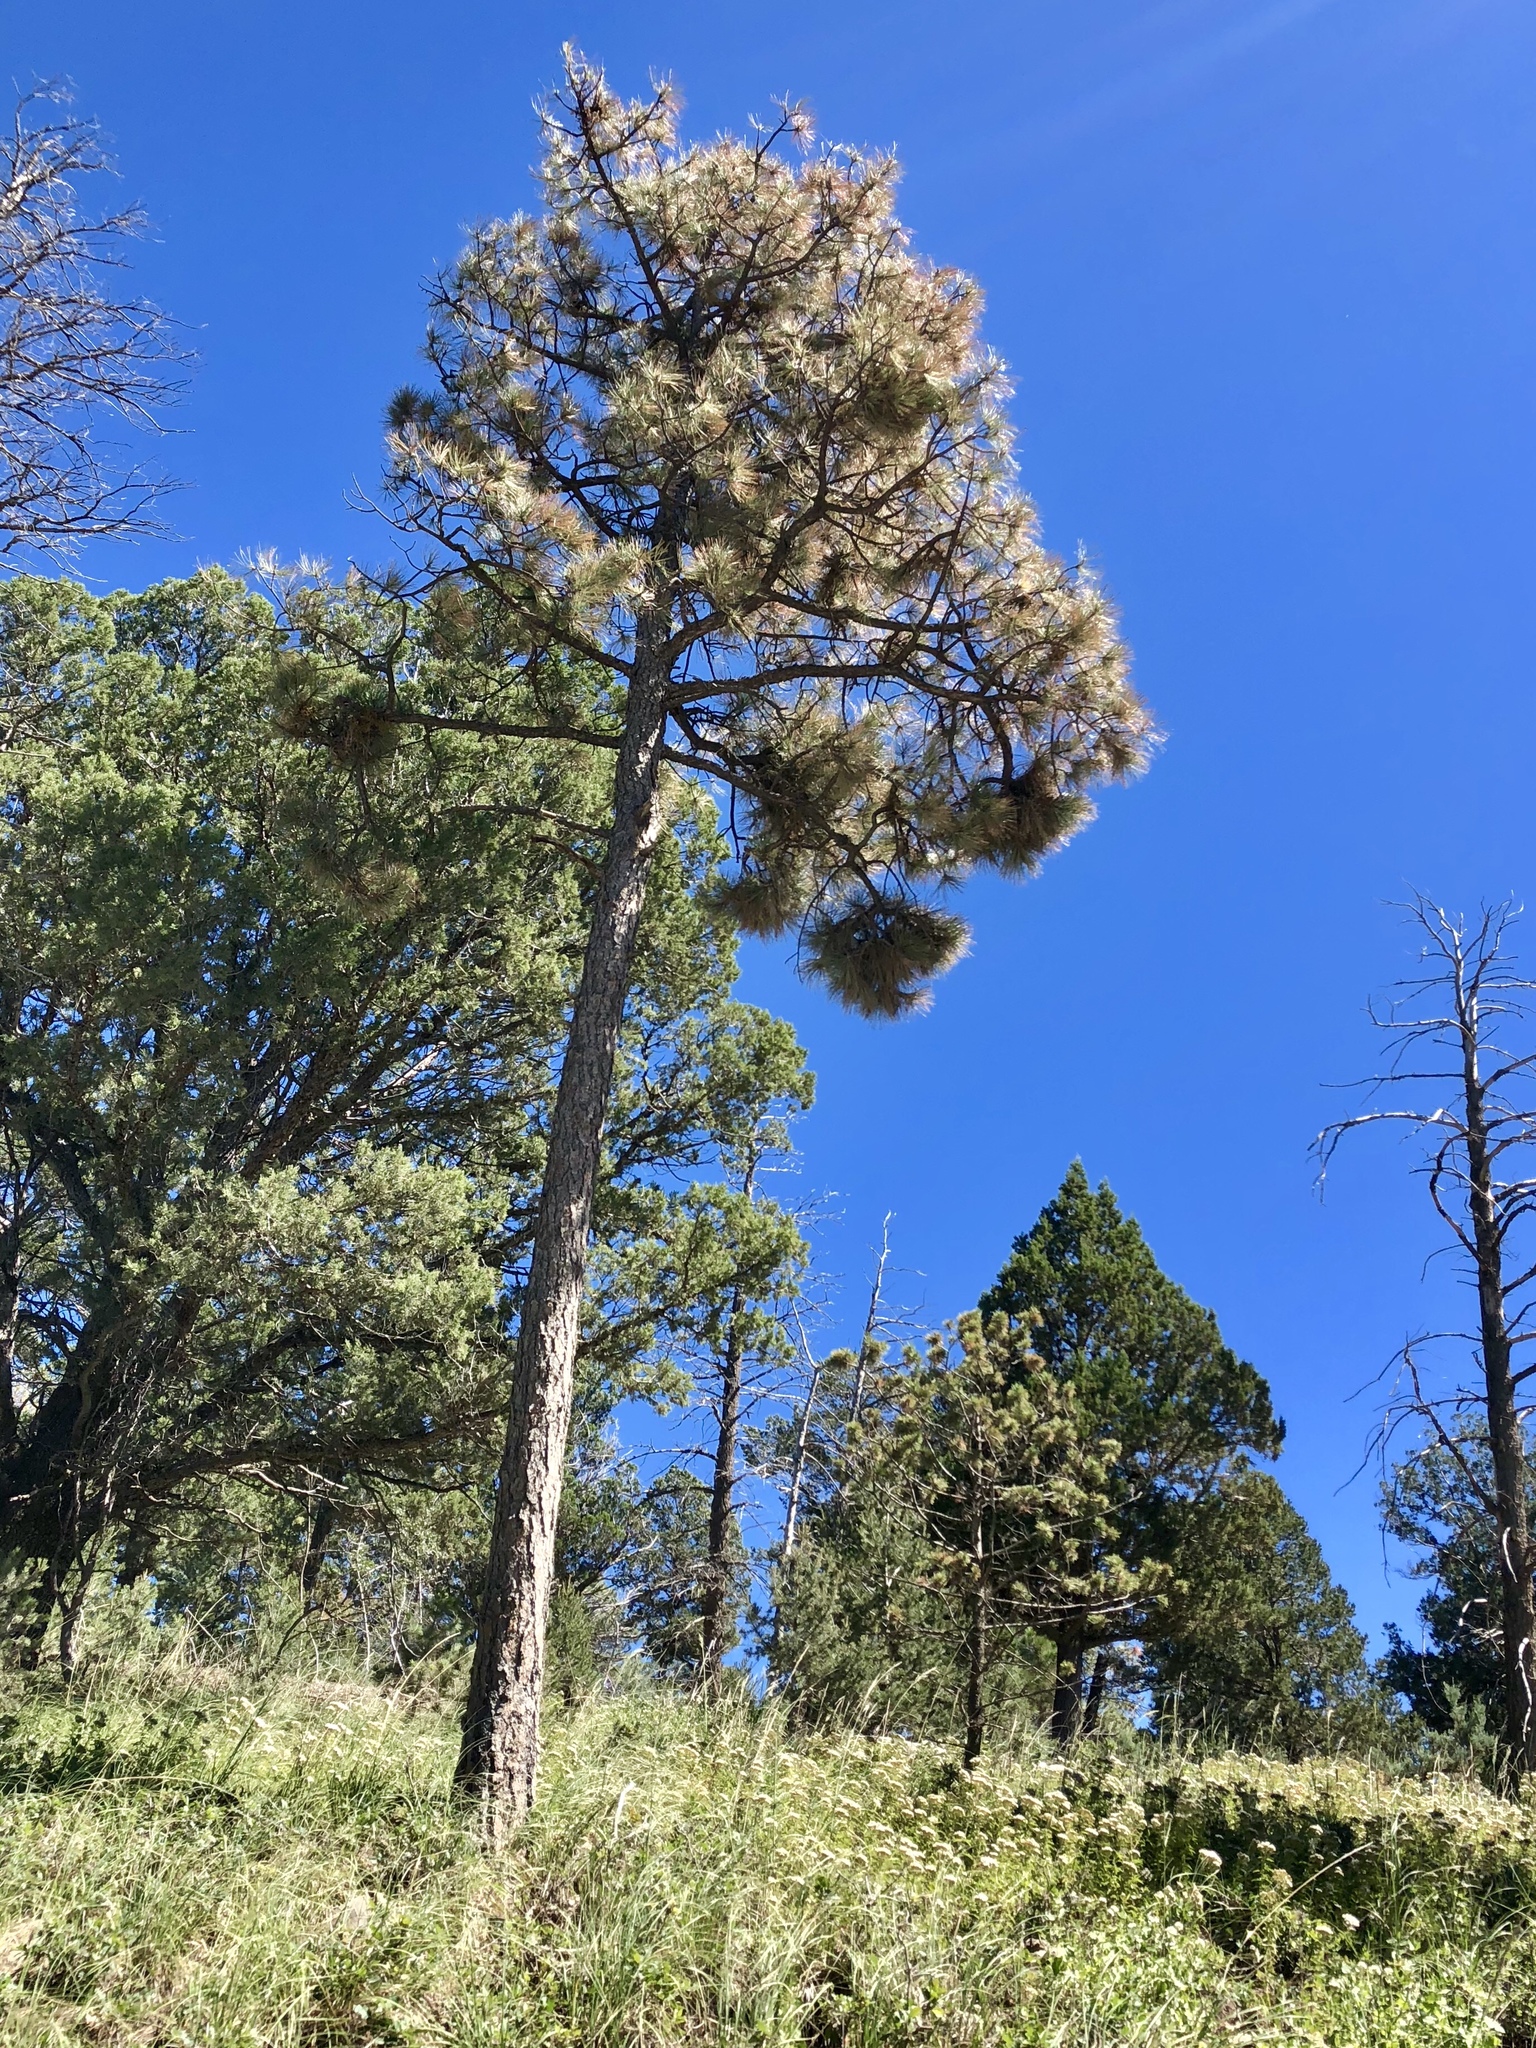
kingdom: Plantae
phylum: Tracheophyta
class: Pinopsida
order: Pinales
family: Pinaceae
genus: Pinus
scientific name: Pinus ponderosa
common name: Western yellow-pine
